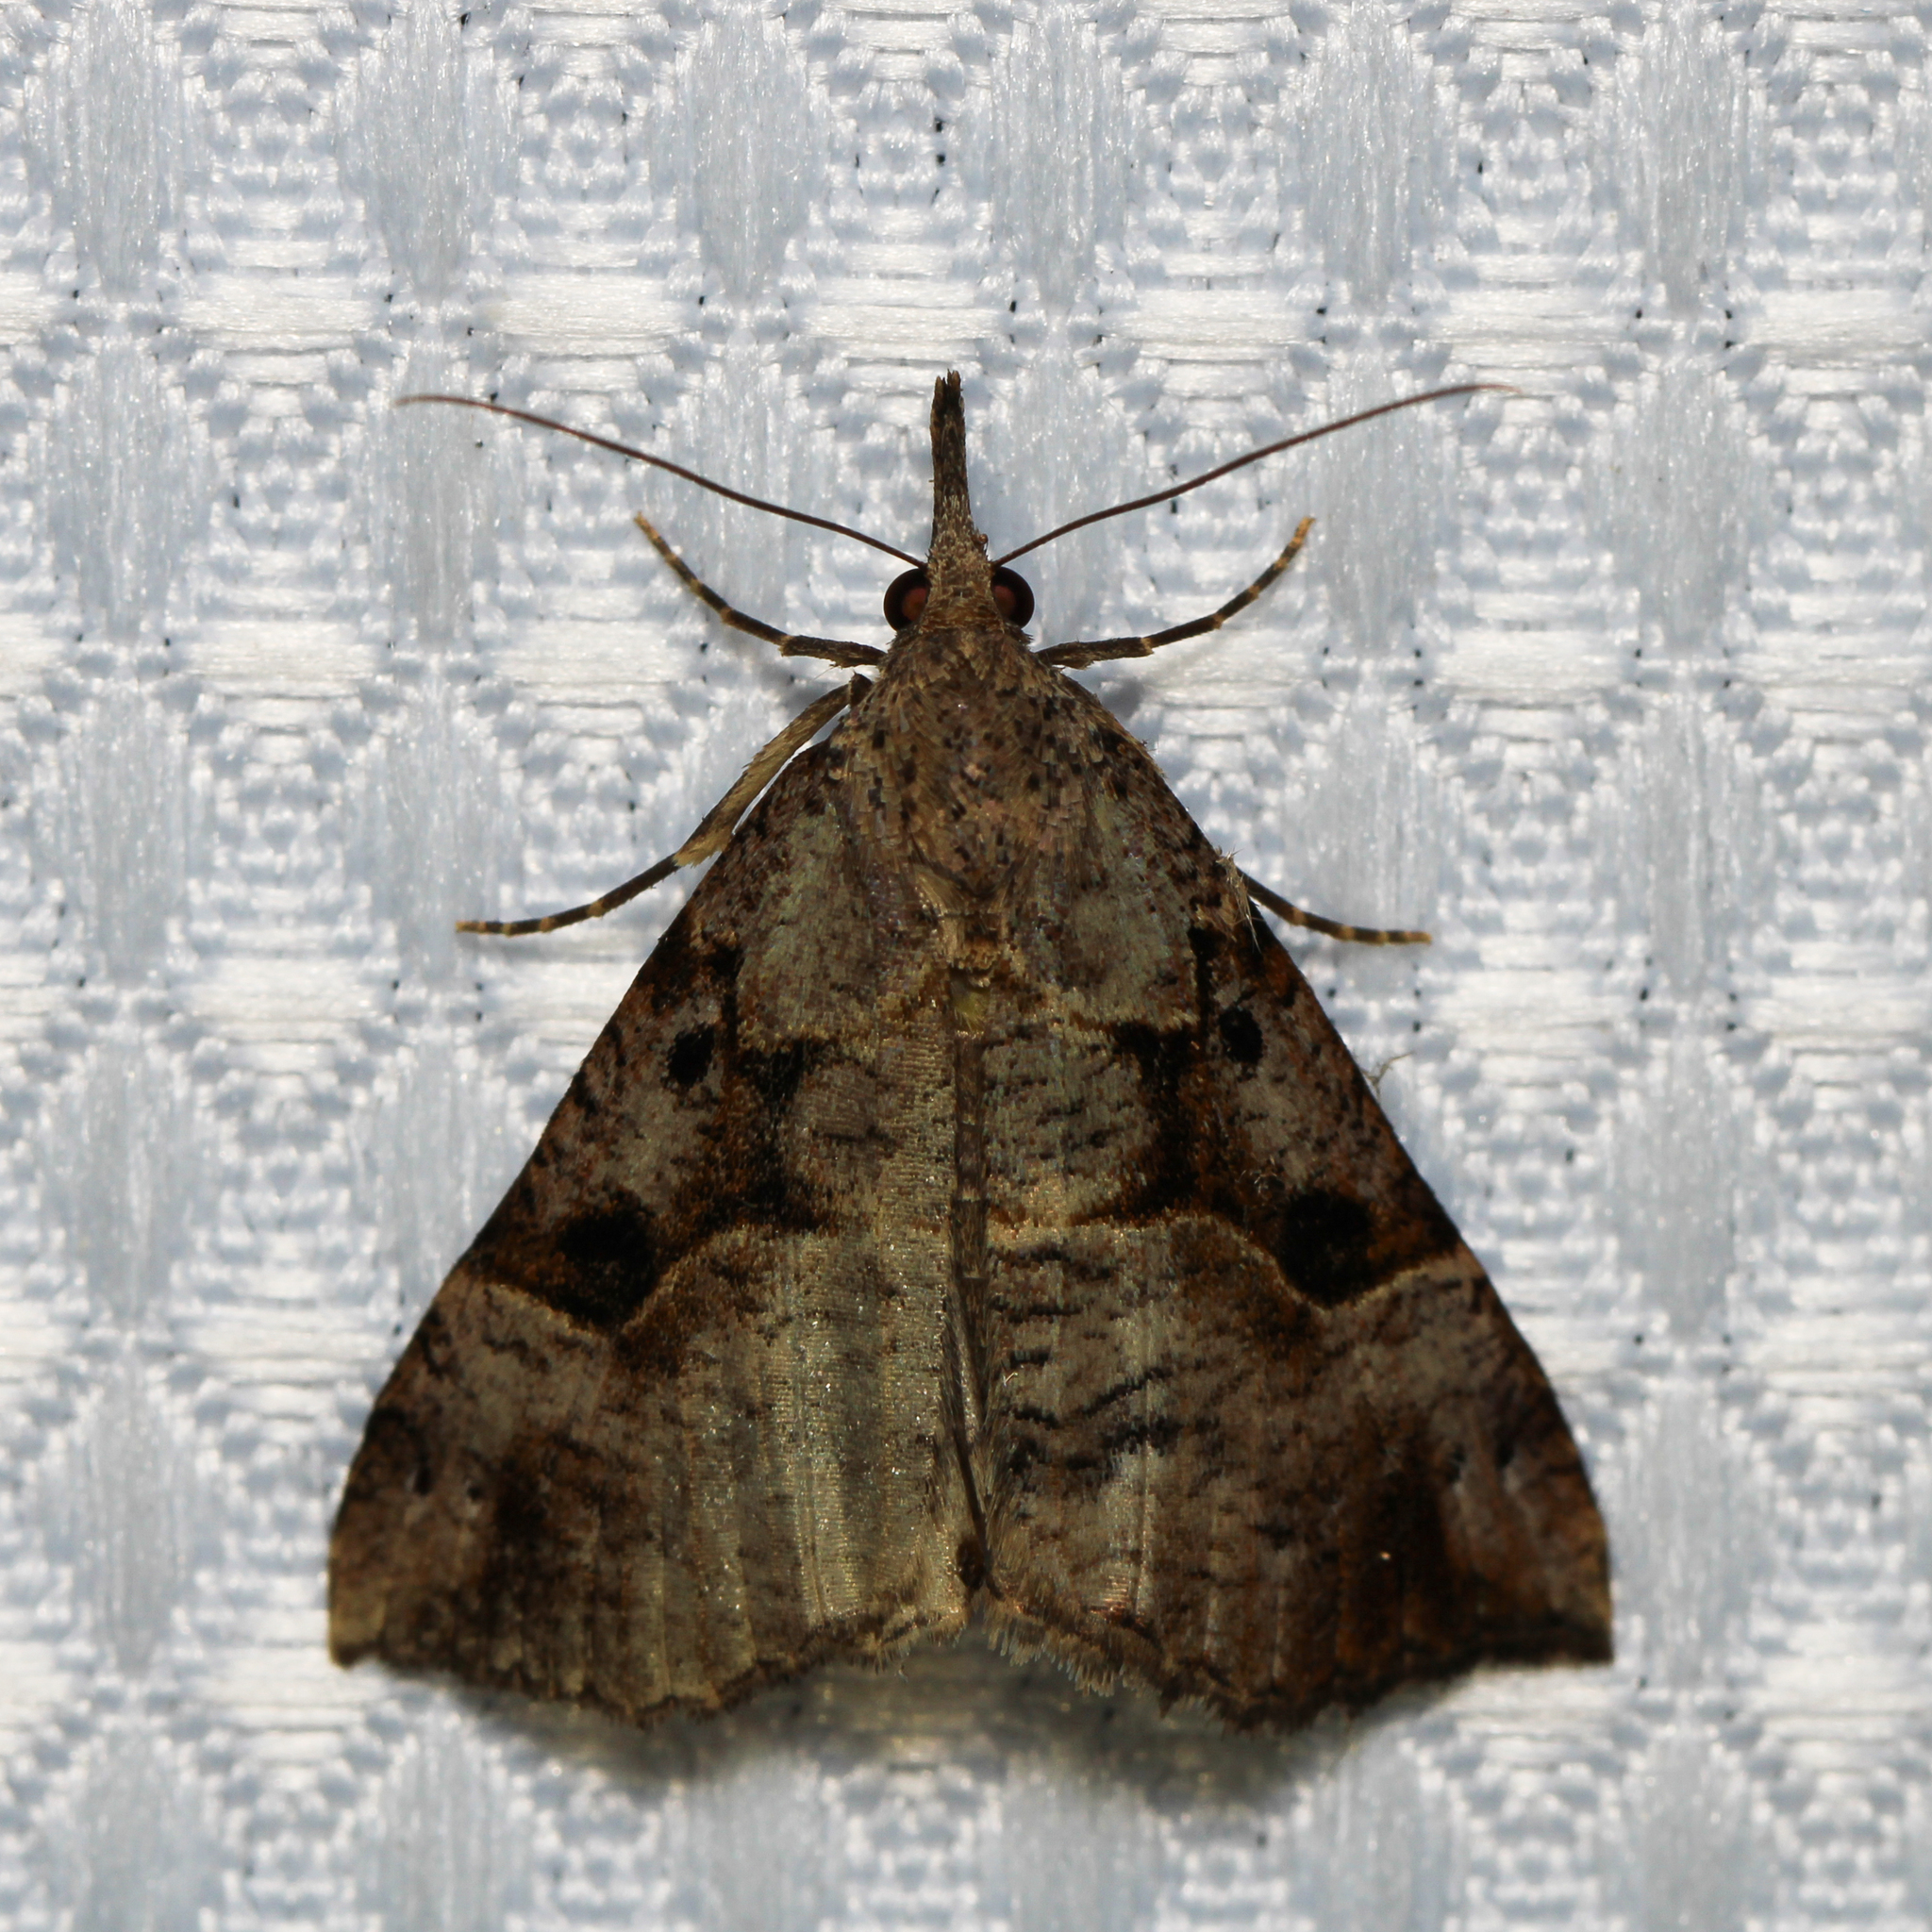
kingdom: Animalia
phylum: Arthropoda
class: Insecta
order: Lepidoptera
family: Erebidae
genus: Hypena
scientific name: Hypena edictalis
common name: Large snout
